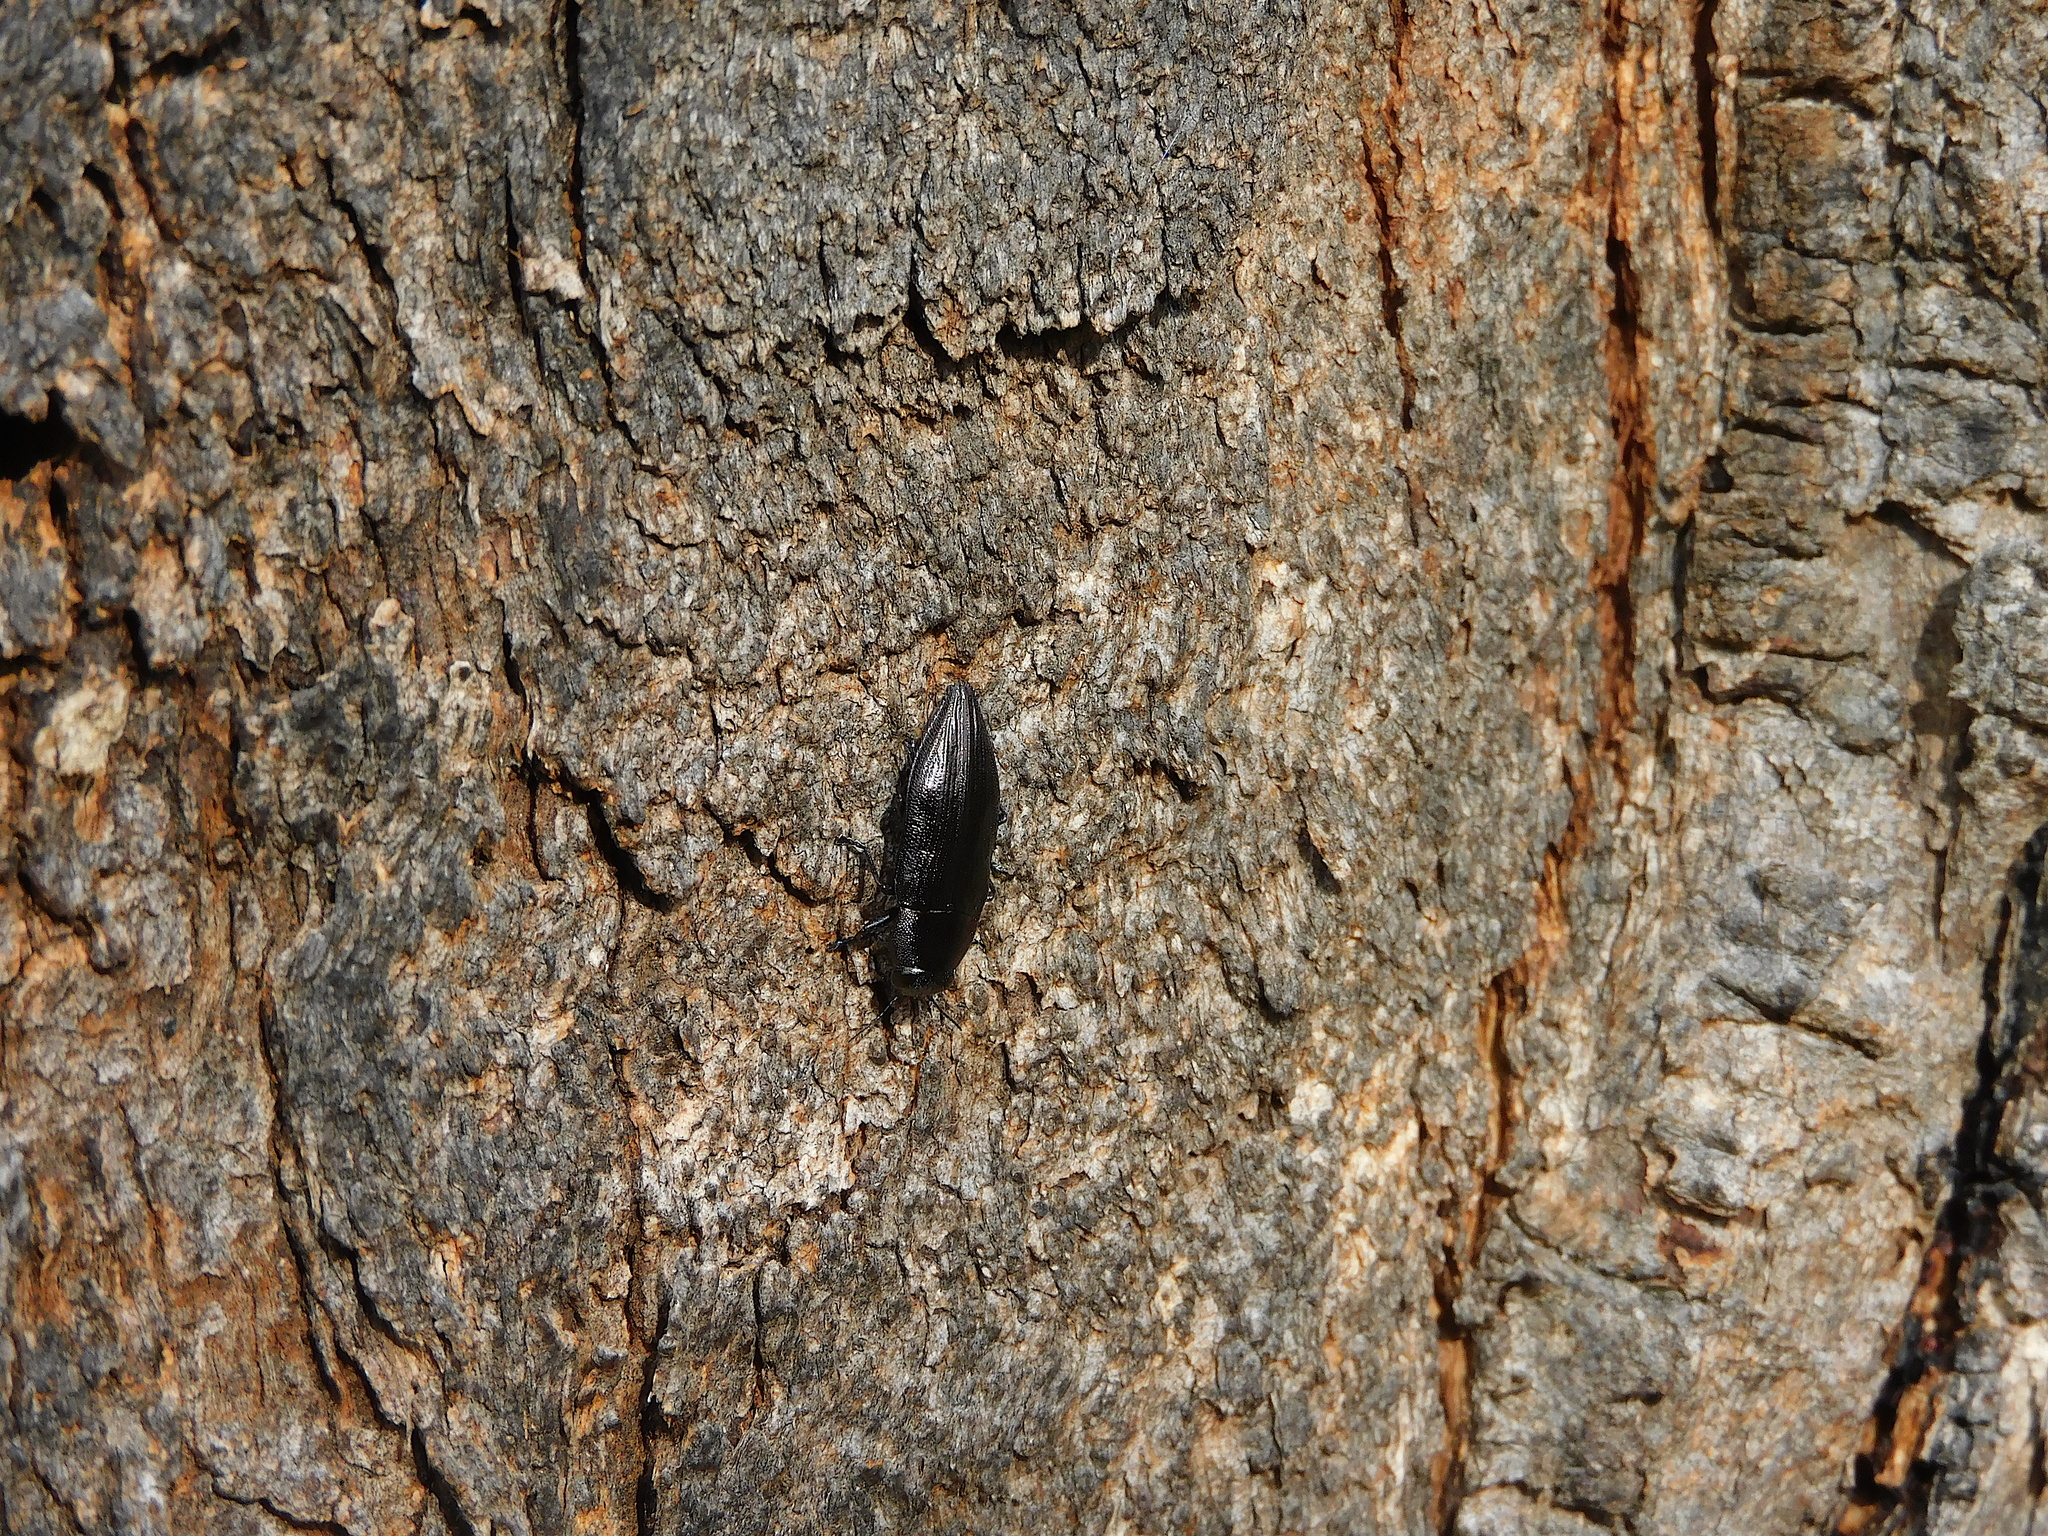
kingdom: Animalia
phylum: Arthropoda
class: Insecta
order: Coleoptera
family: Buprestidae
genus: Melobasis
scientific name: Melobasis hypocrita
